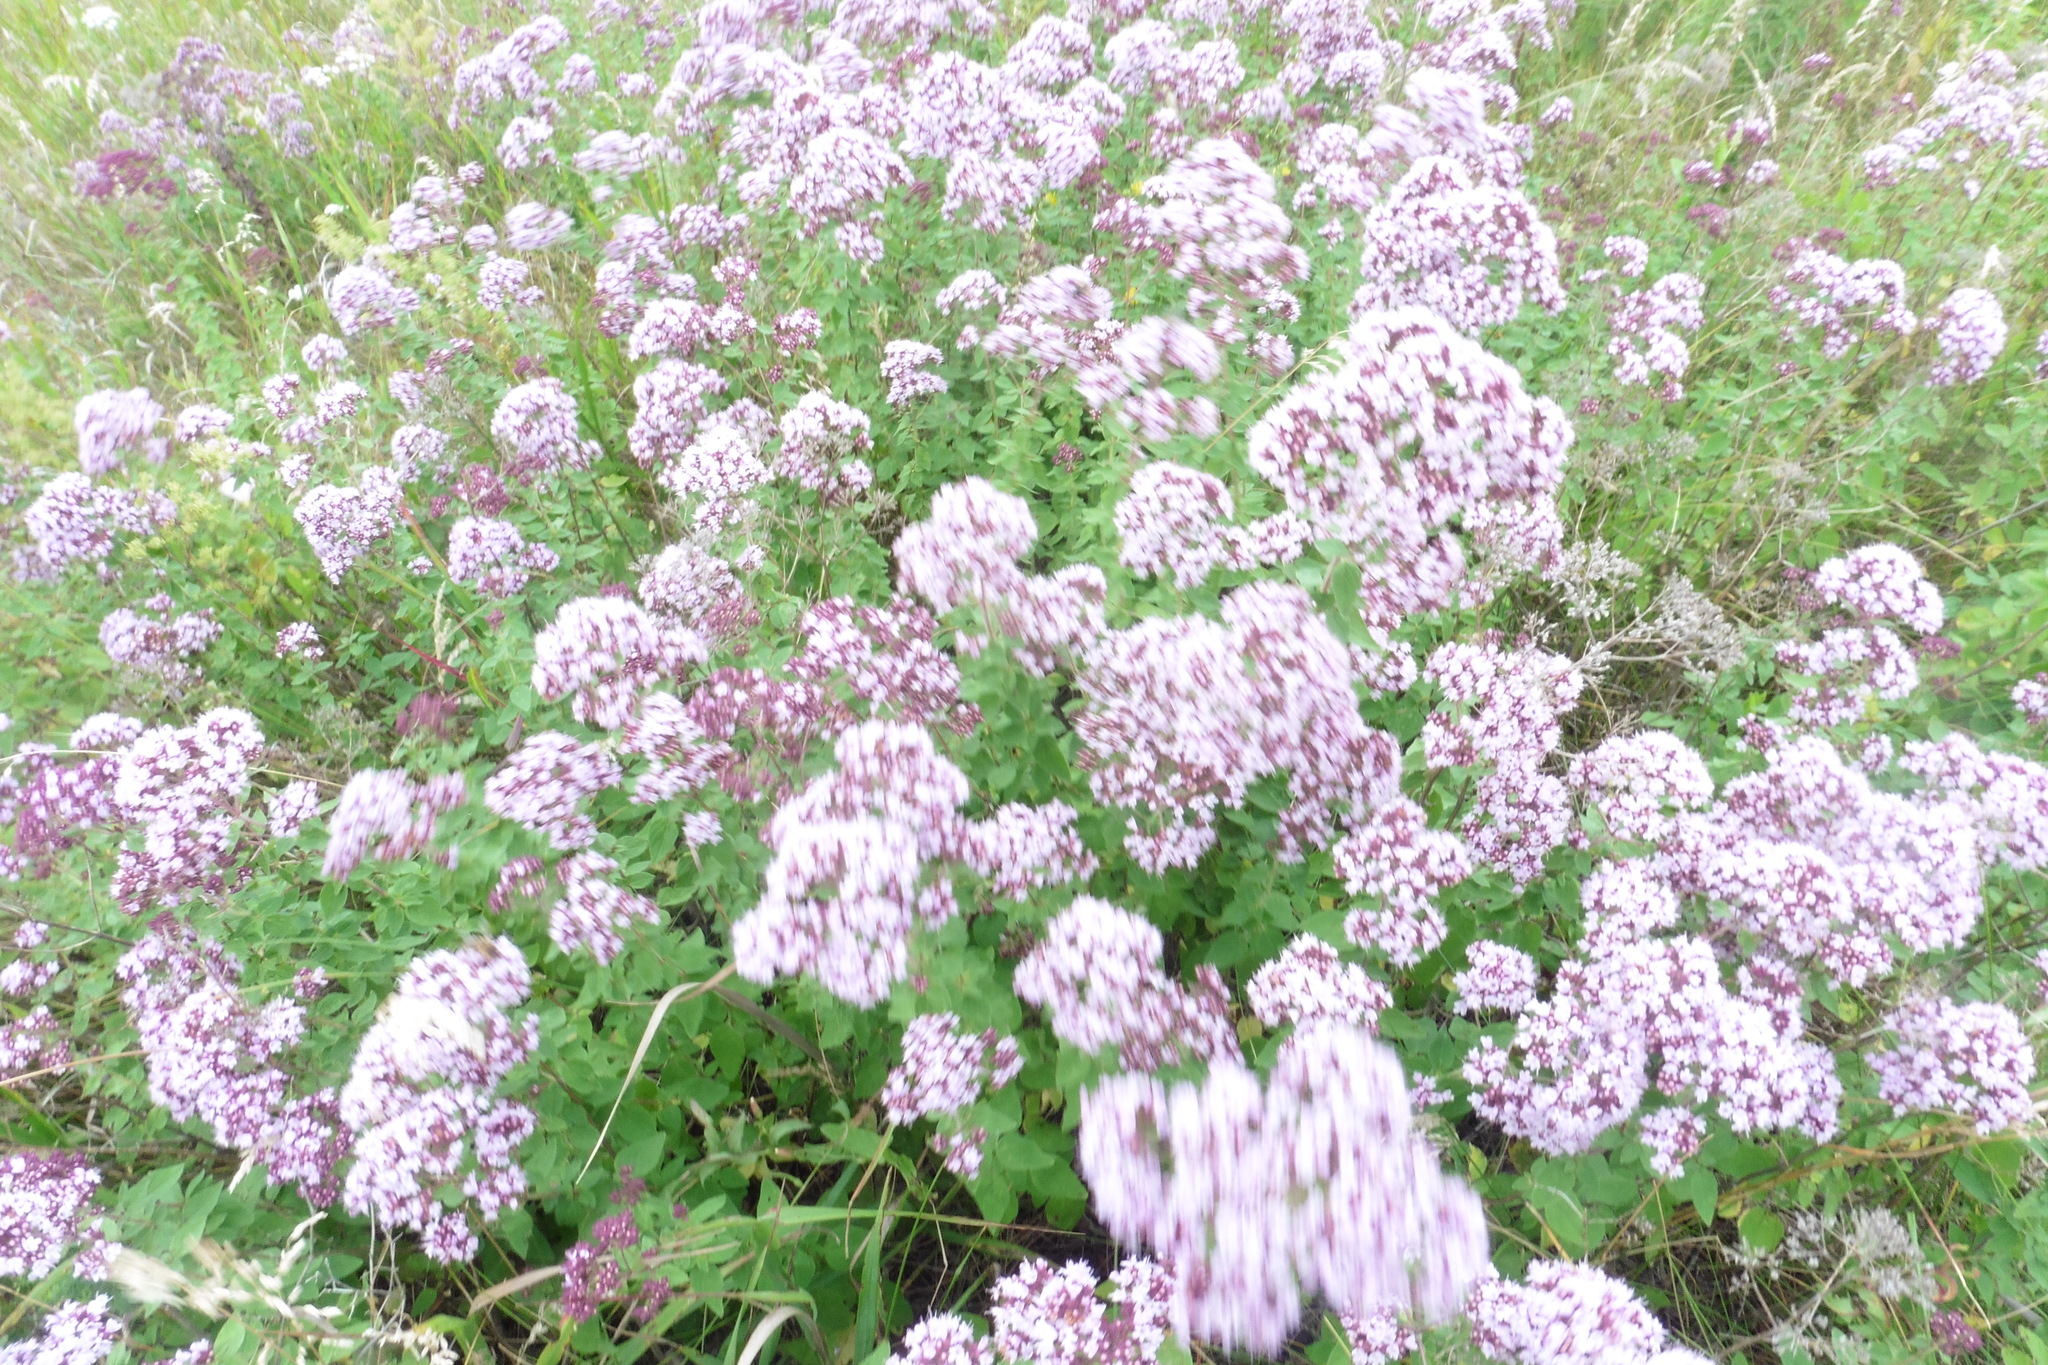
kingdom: Plantae
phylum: Tracheophyta
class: Magnoliopsida
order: Lamiales
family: Lamiaceae
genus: Origanum
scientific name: Origanum vulgare
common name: Wild marjoram
